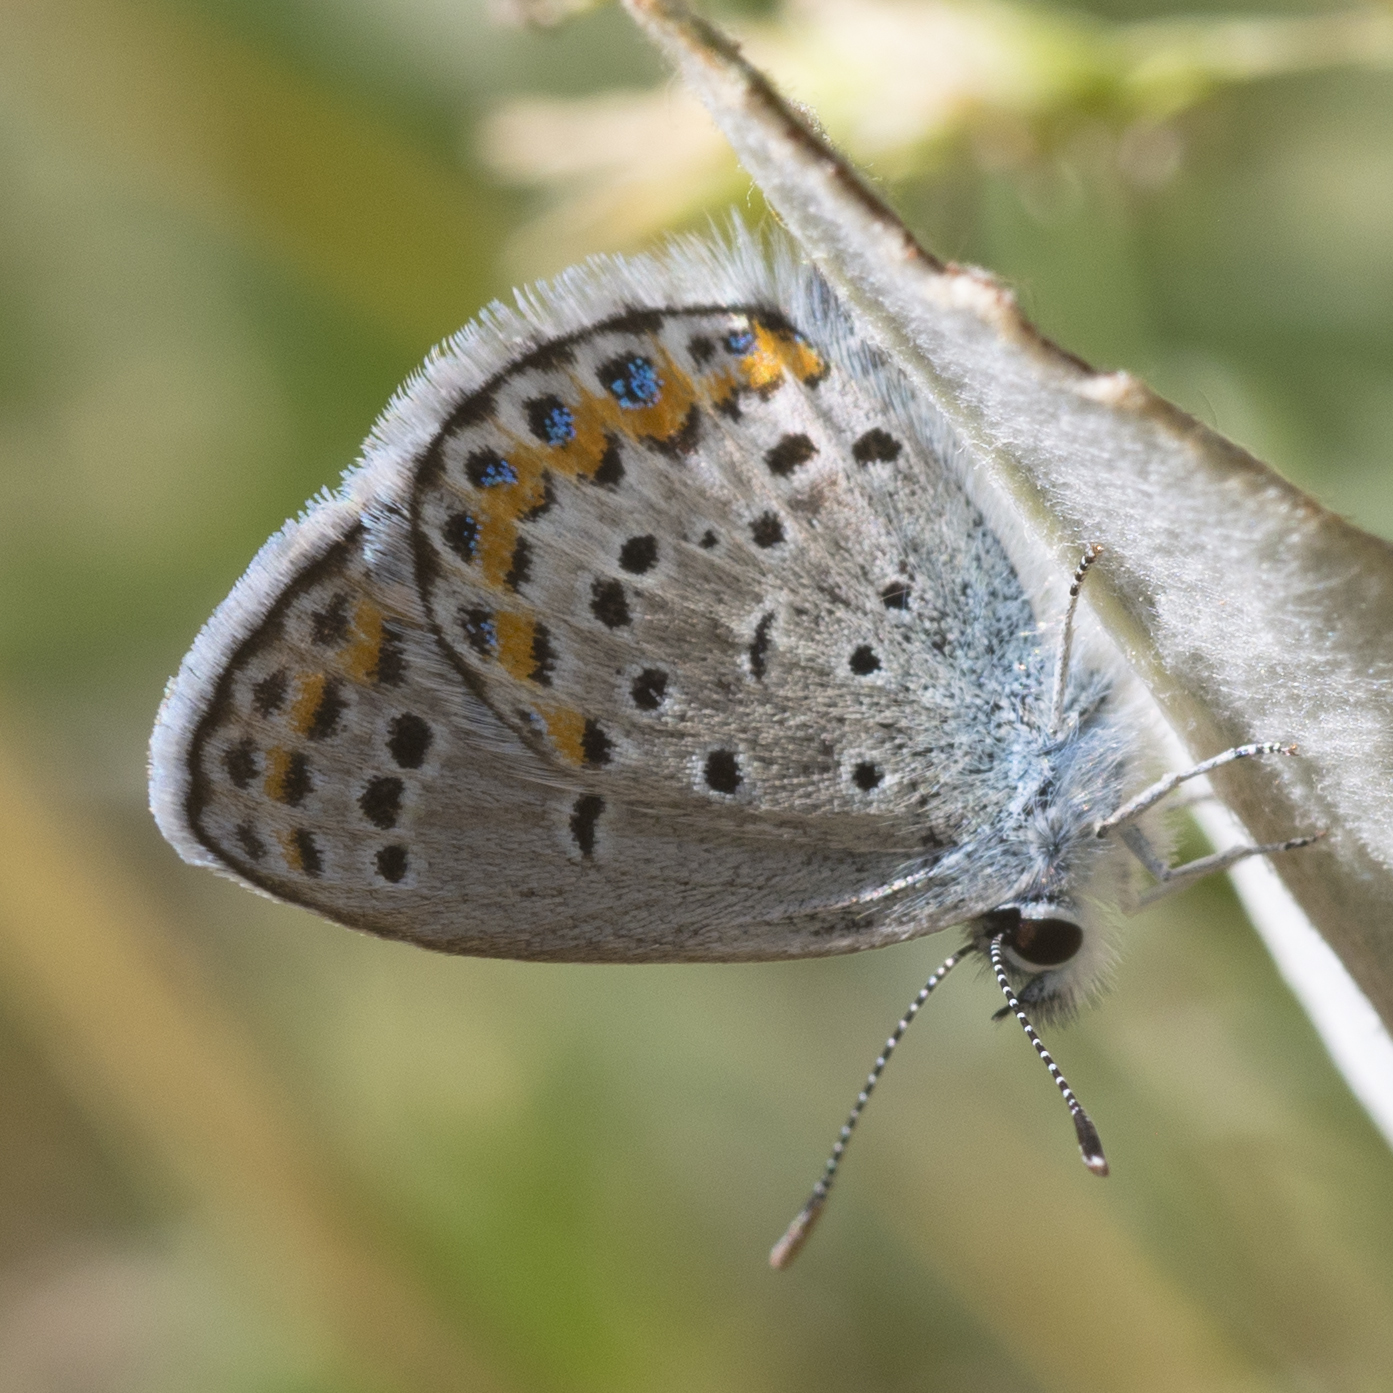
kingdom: Animalia
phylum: Arthropoda
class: Insecta
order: Lepidoptera
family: Lycaenidae
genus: Lycaeides
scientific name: Lycaeides melissa
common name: Melissa blue
